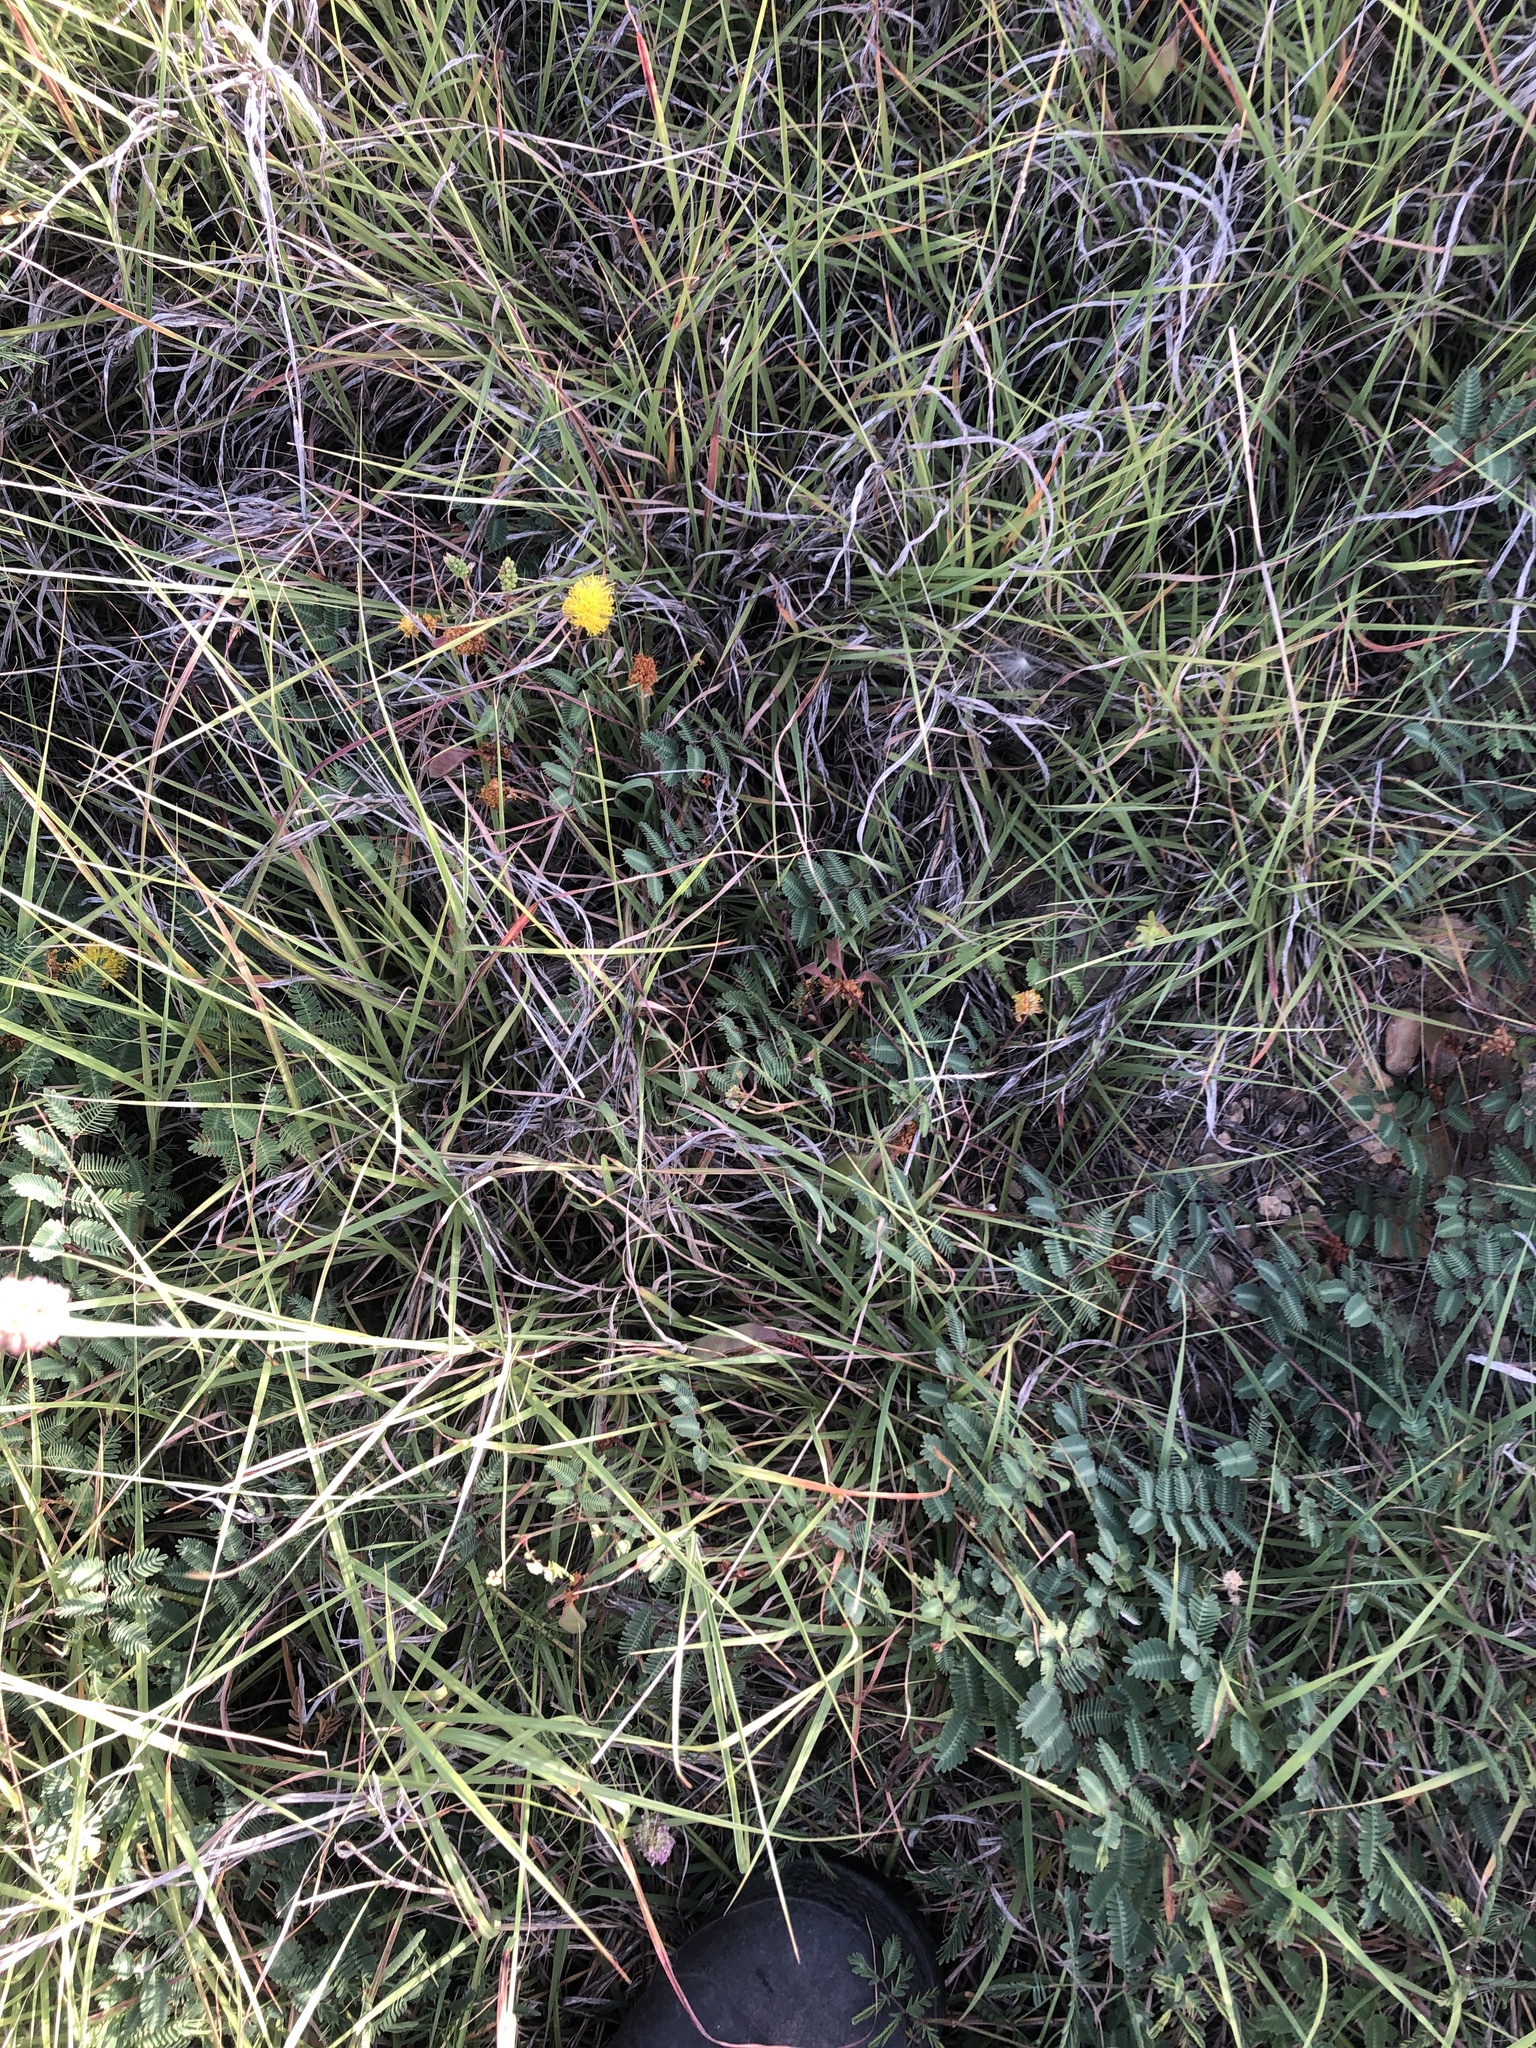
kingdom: Plantae
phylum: Tracheophyta
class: Magnoliopsida
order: Fabales
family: Fabaceae
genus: Neptunia
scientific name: Neptunia lutea
